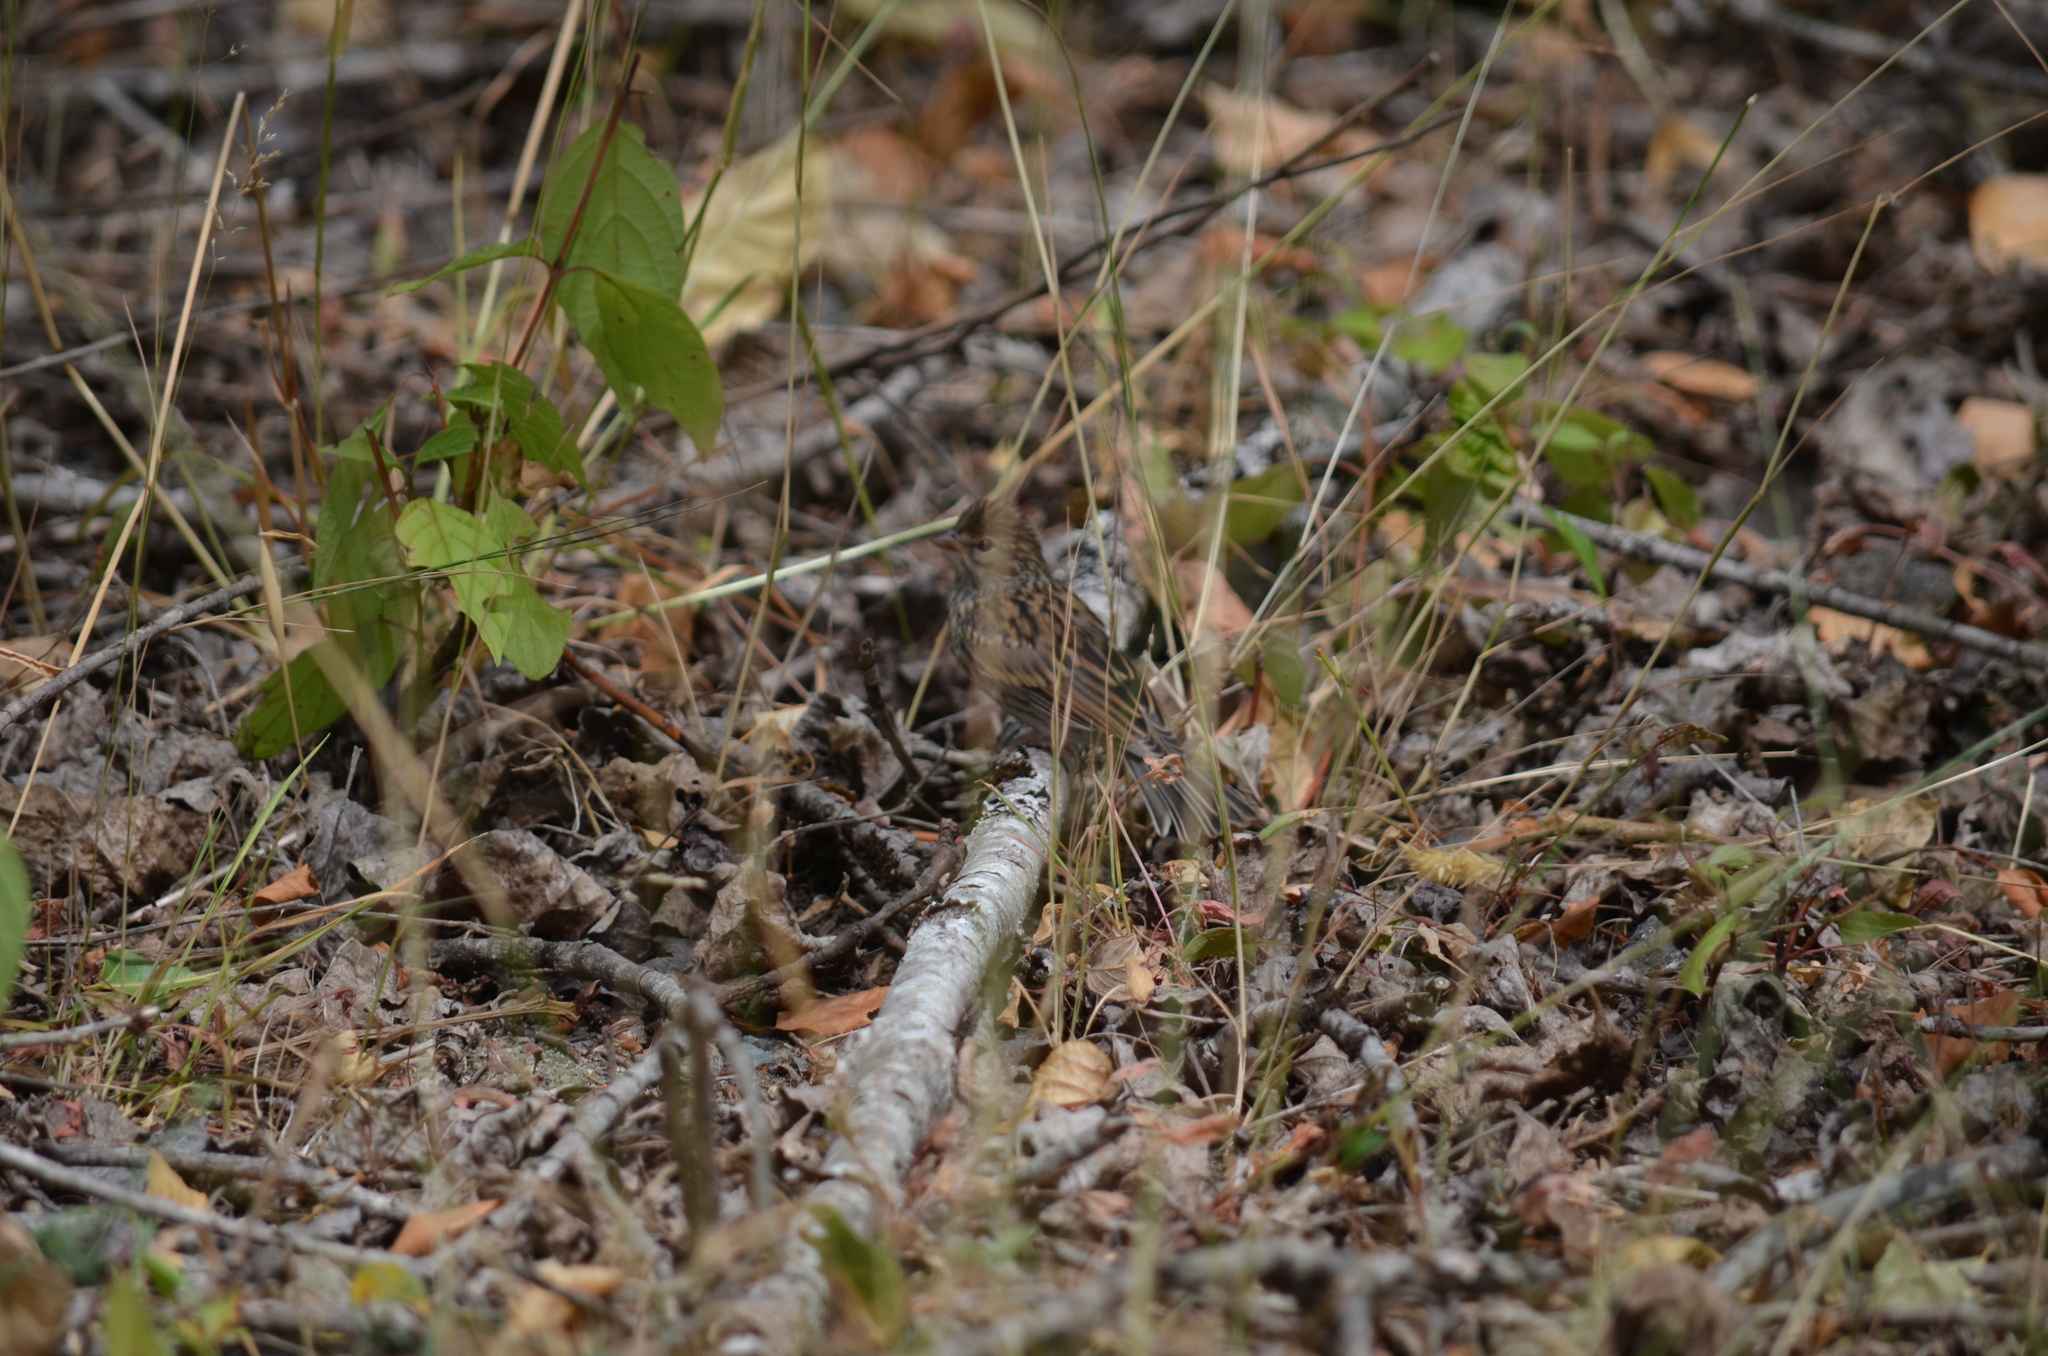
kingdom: Animalia
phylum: Chordata
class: Aves
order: Passeriformes
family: Passerellidae
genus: Spizella
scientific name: Spizella passerina
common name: Chipping sparrow
